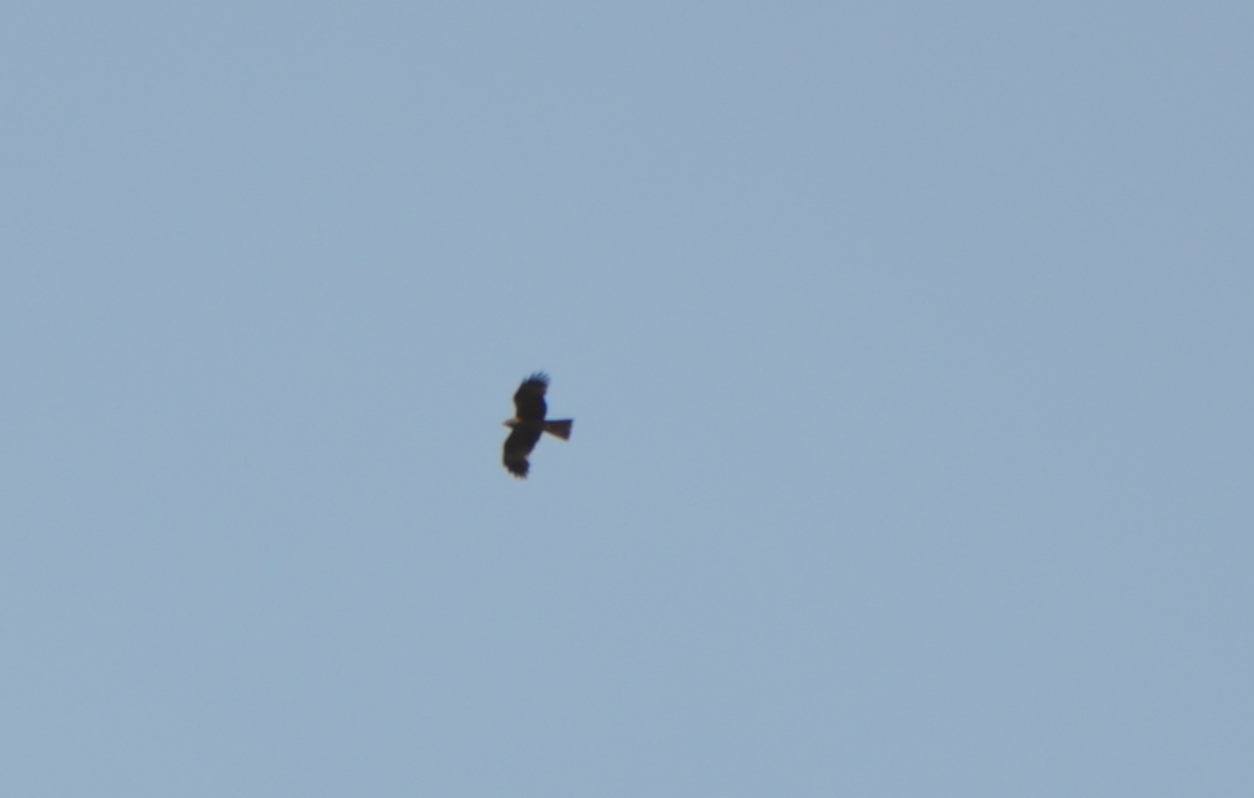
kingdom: Animalia
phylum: Chordata
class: Aves
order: Accipitriformes
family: Accipitridae
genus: Milvus
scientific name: Milvus migrans
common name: Black kite
